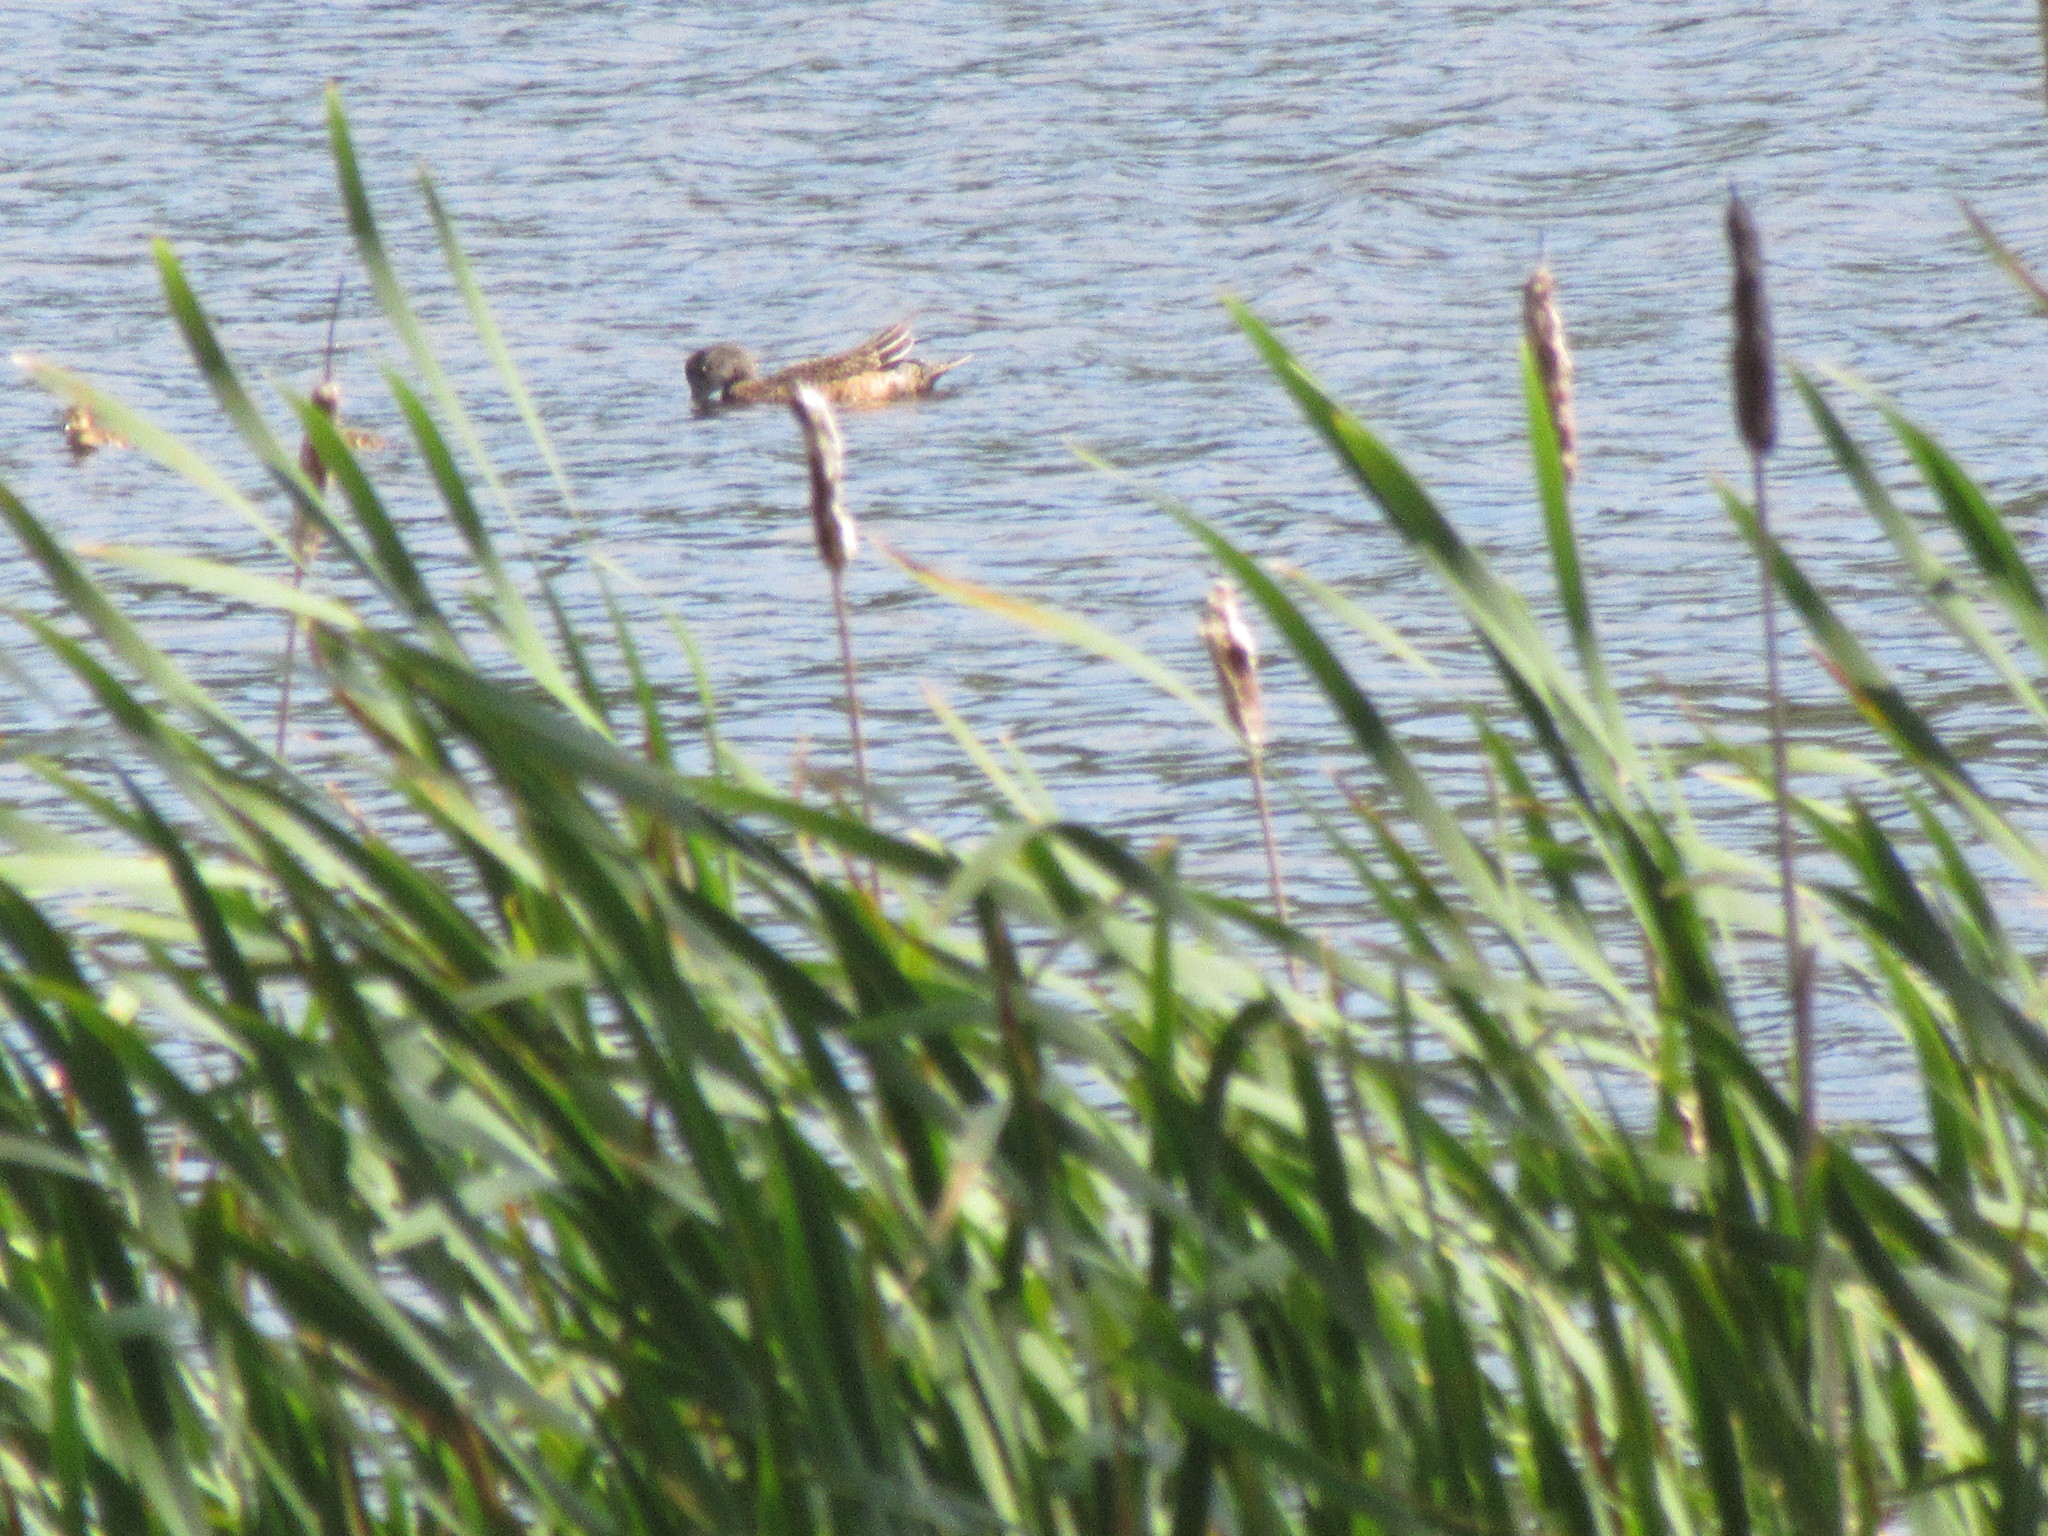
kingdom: Animalia
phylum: Chordata
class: Aves
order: Anseriformes
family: Anatidae
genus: Mareca
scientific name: Mareca americana
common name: American wigeon
